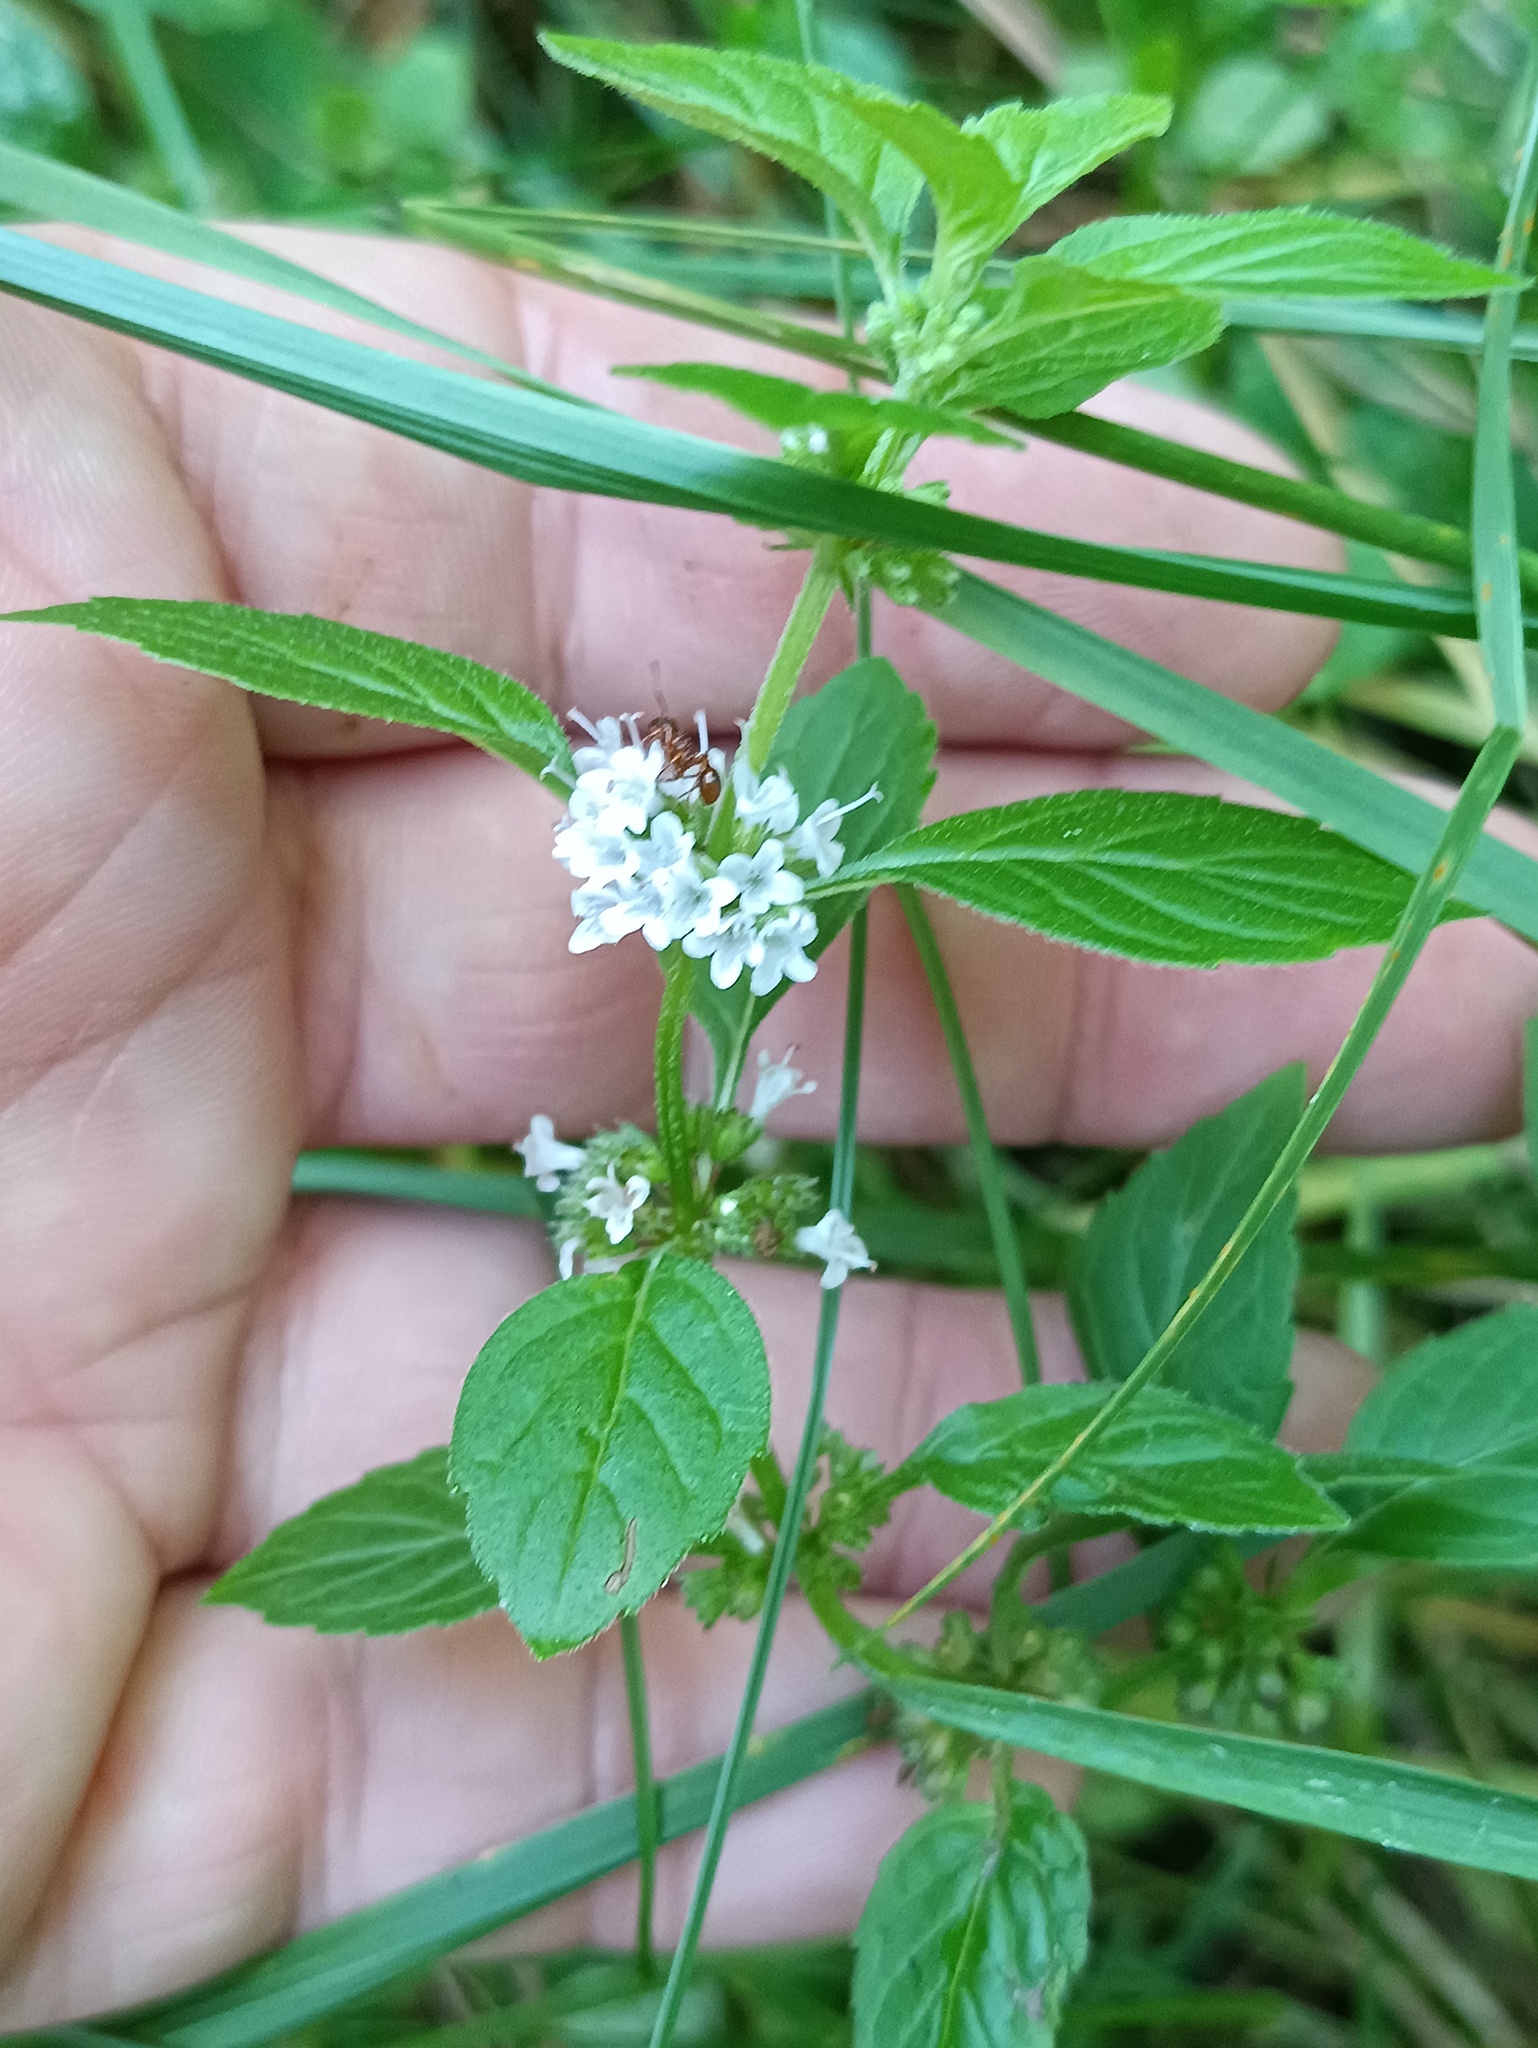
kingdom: Plantae
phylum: Tracheophyta
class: Magnoliopsida
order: Lamiales
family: Lamiaceae
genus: Mentha
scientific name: Mentha arvensis
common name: Corn mint
